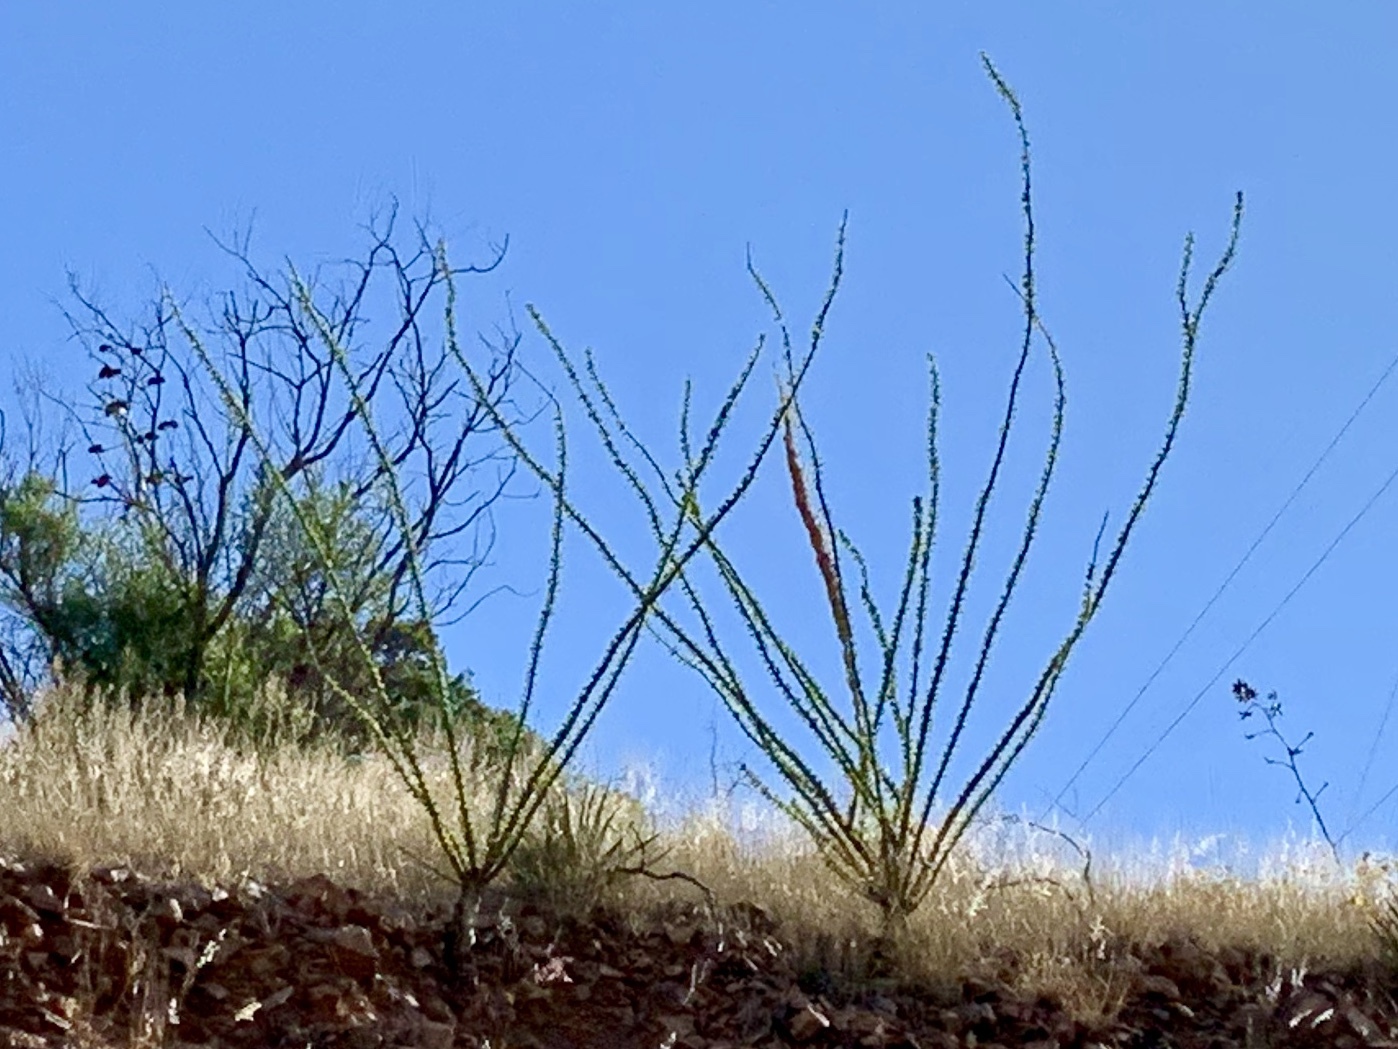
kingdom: Plantae
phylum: Tracheophyta
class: Magnoliopsida
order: Ericales
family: Fouquieriaceae
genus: Fouquieria
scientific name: Fouquieria splendens
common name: Vine-cactus
